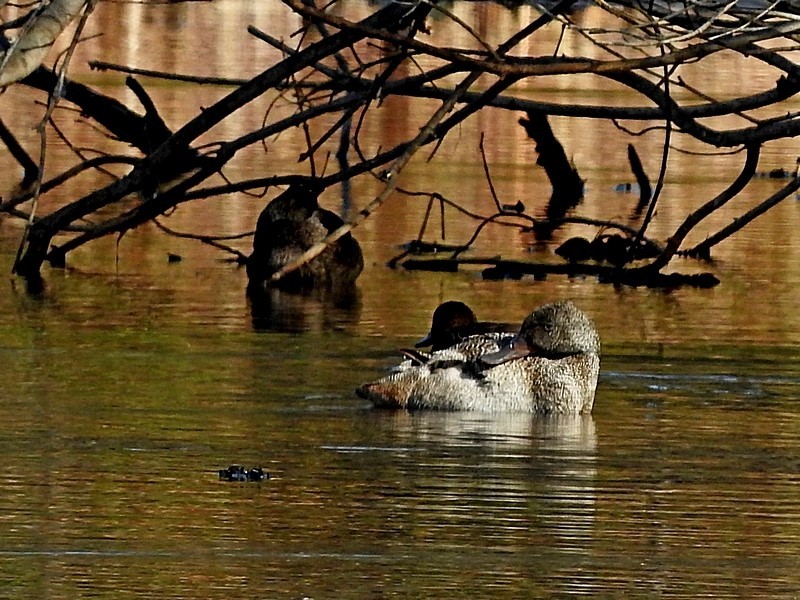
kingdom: Animalia
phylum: Chordata
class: Aves
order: Anseriformes
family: Anatidae
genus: Stictonetta
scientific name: Stictonetta naevosa
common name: Freckled duck
